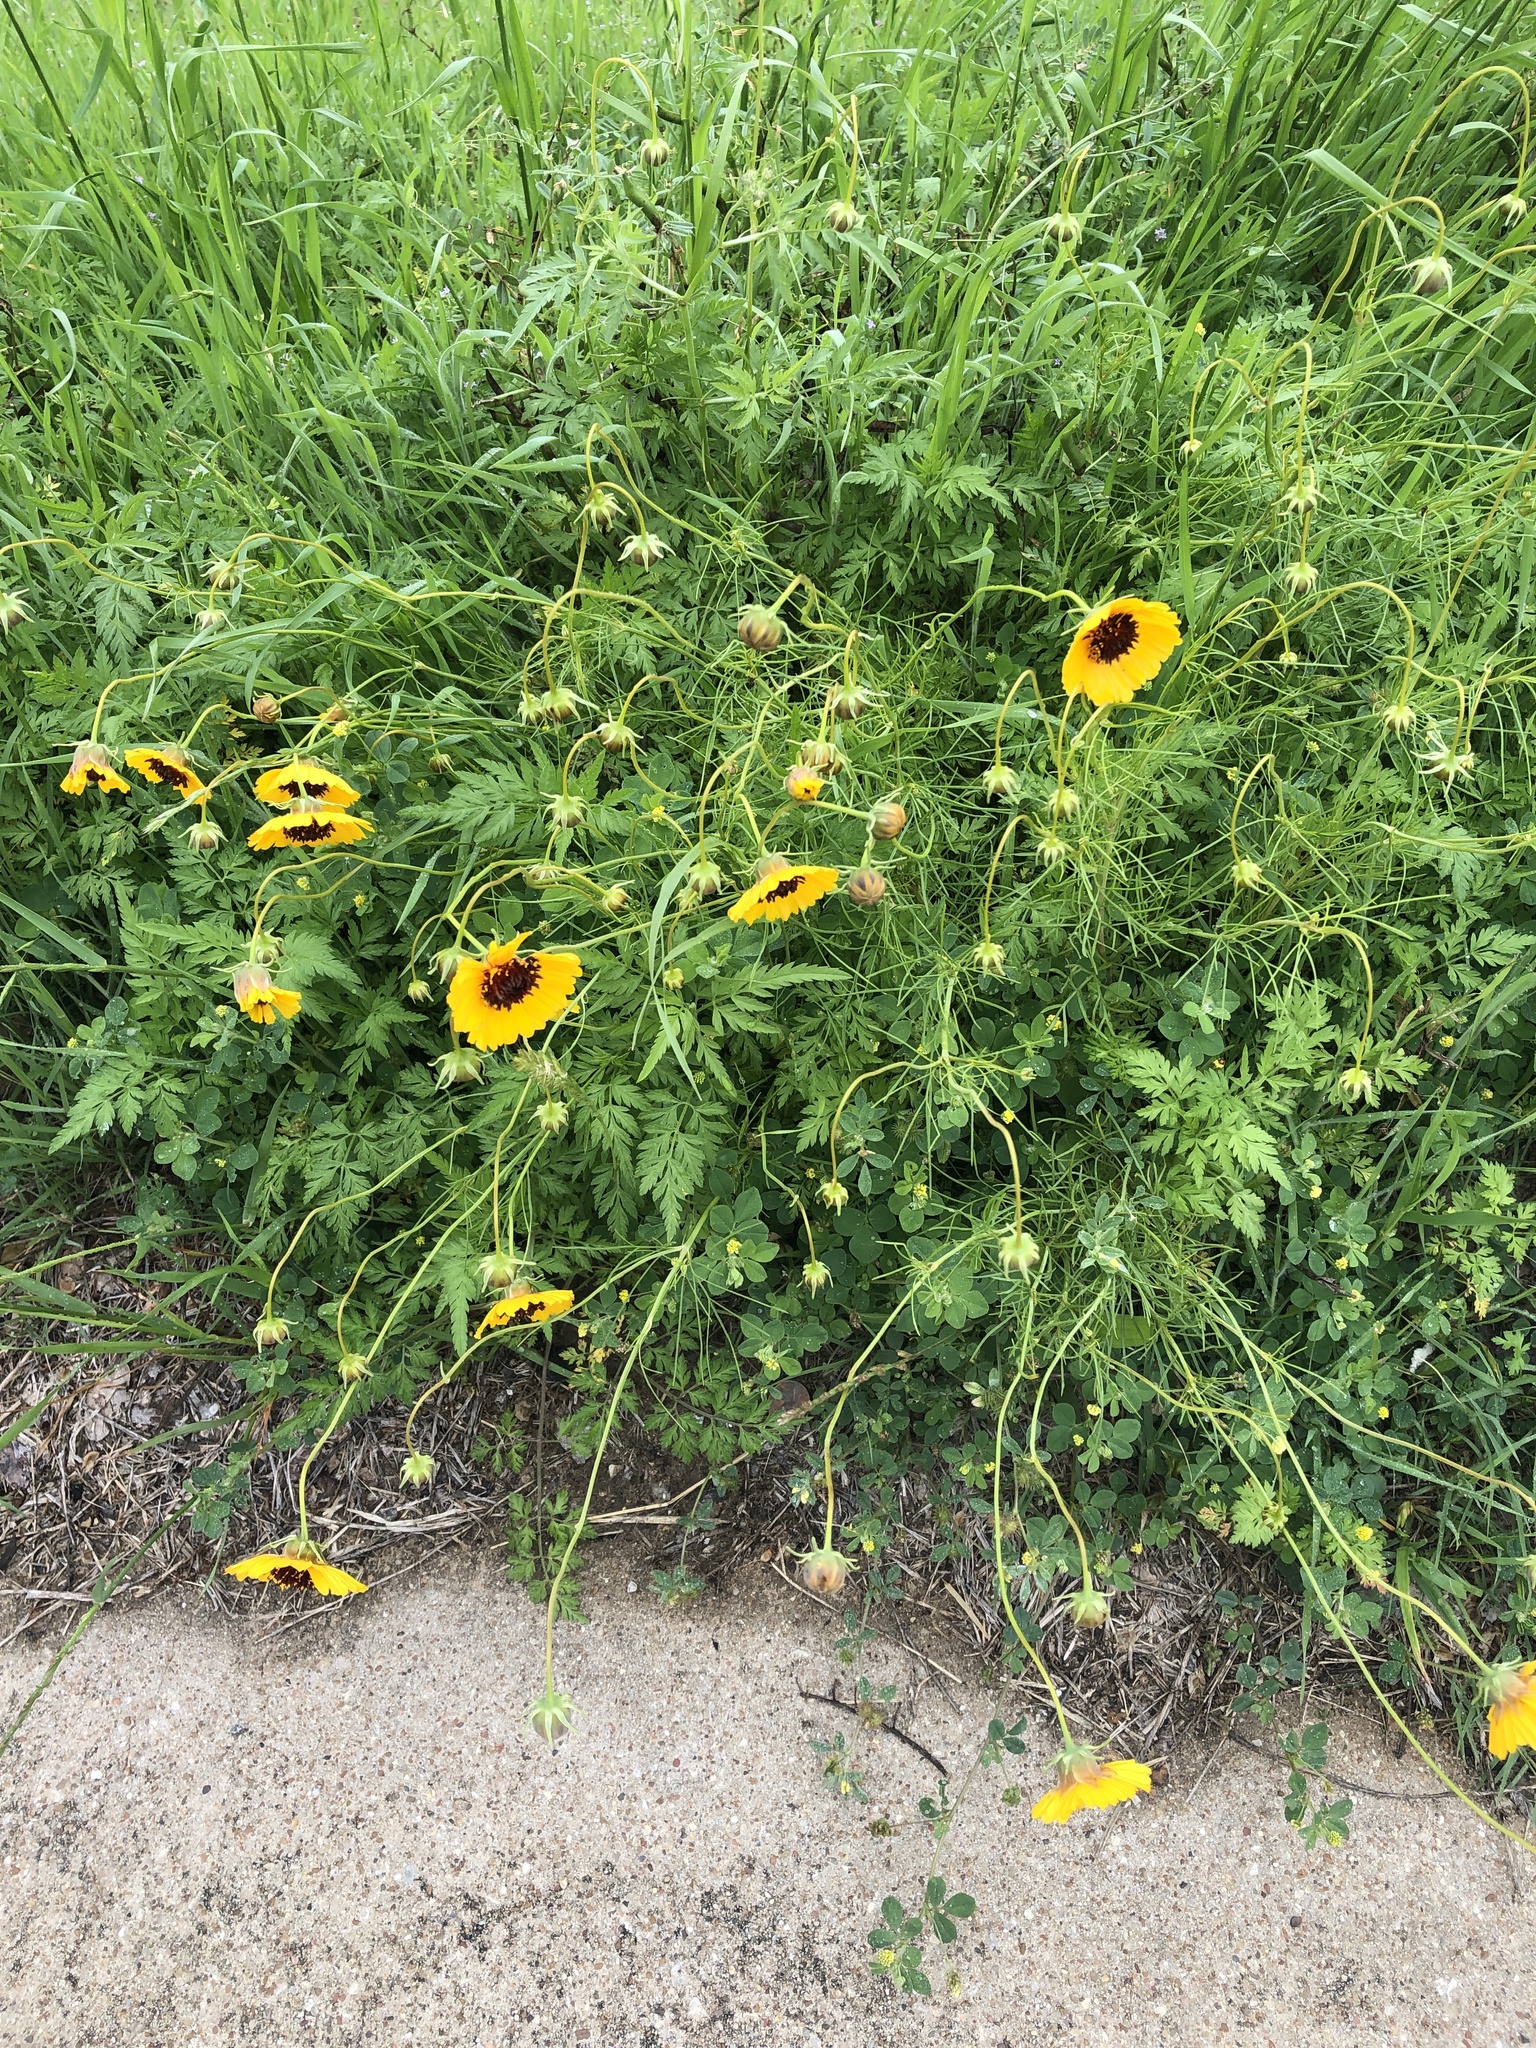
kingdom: Plantae
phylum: Tracheophyta
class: Magnoliopsida
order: Asterales
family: Asteraceae
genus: Thelesperma
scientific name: Thelesperma filifolium
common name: Stiff greenthread
